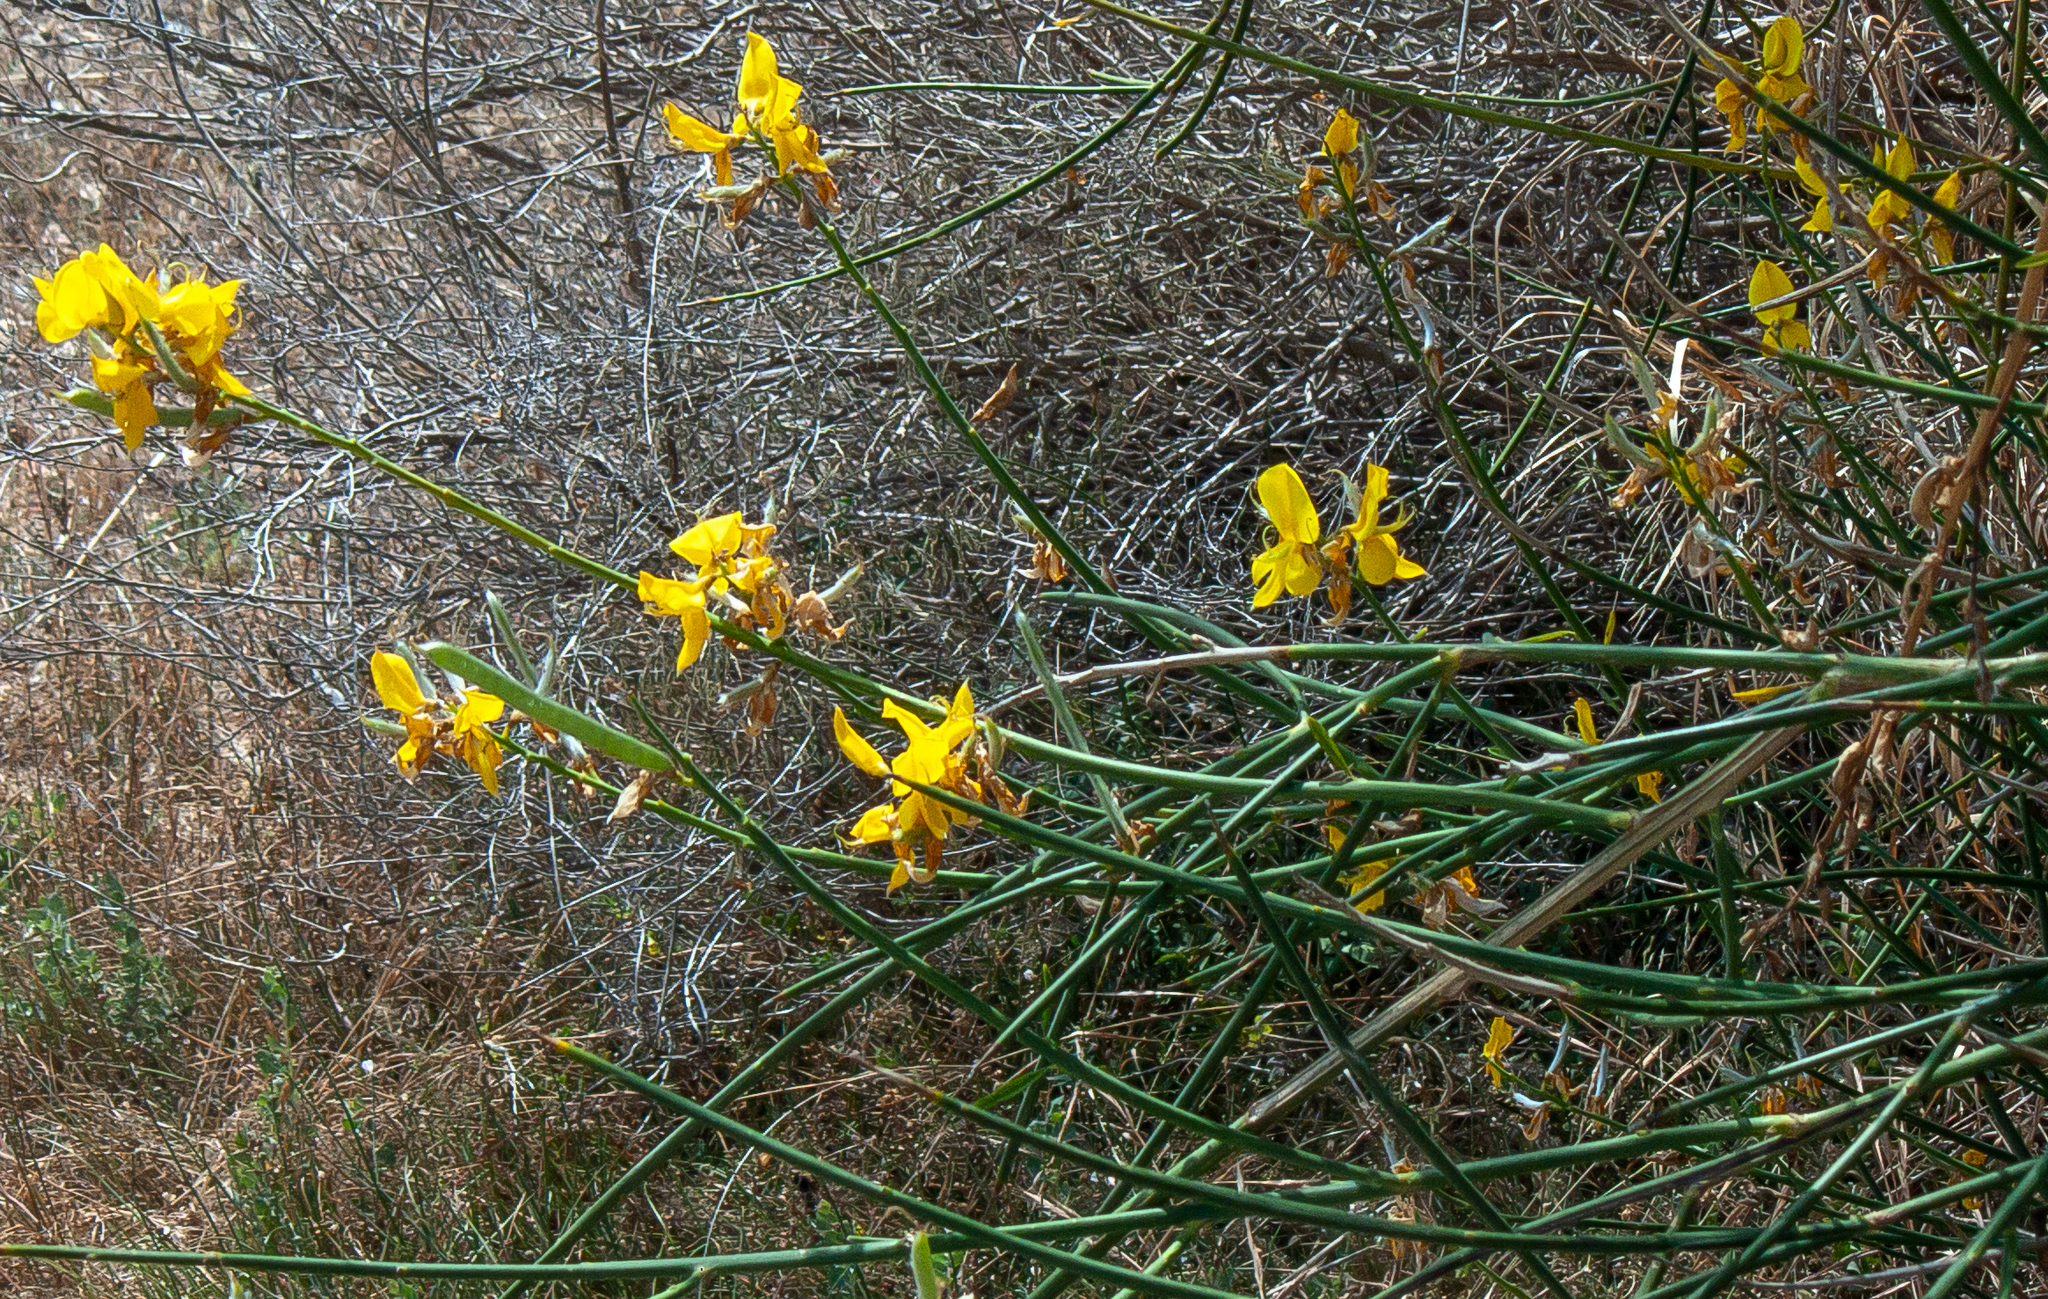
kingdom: Plantae
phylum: Tracheophyta
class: Magnoliopsida
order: Fabales
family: Fabaceae
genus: Spartium
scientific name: Spartium junceum
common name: Spanish broom
